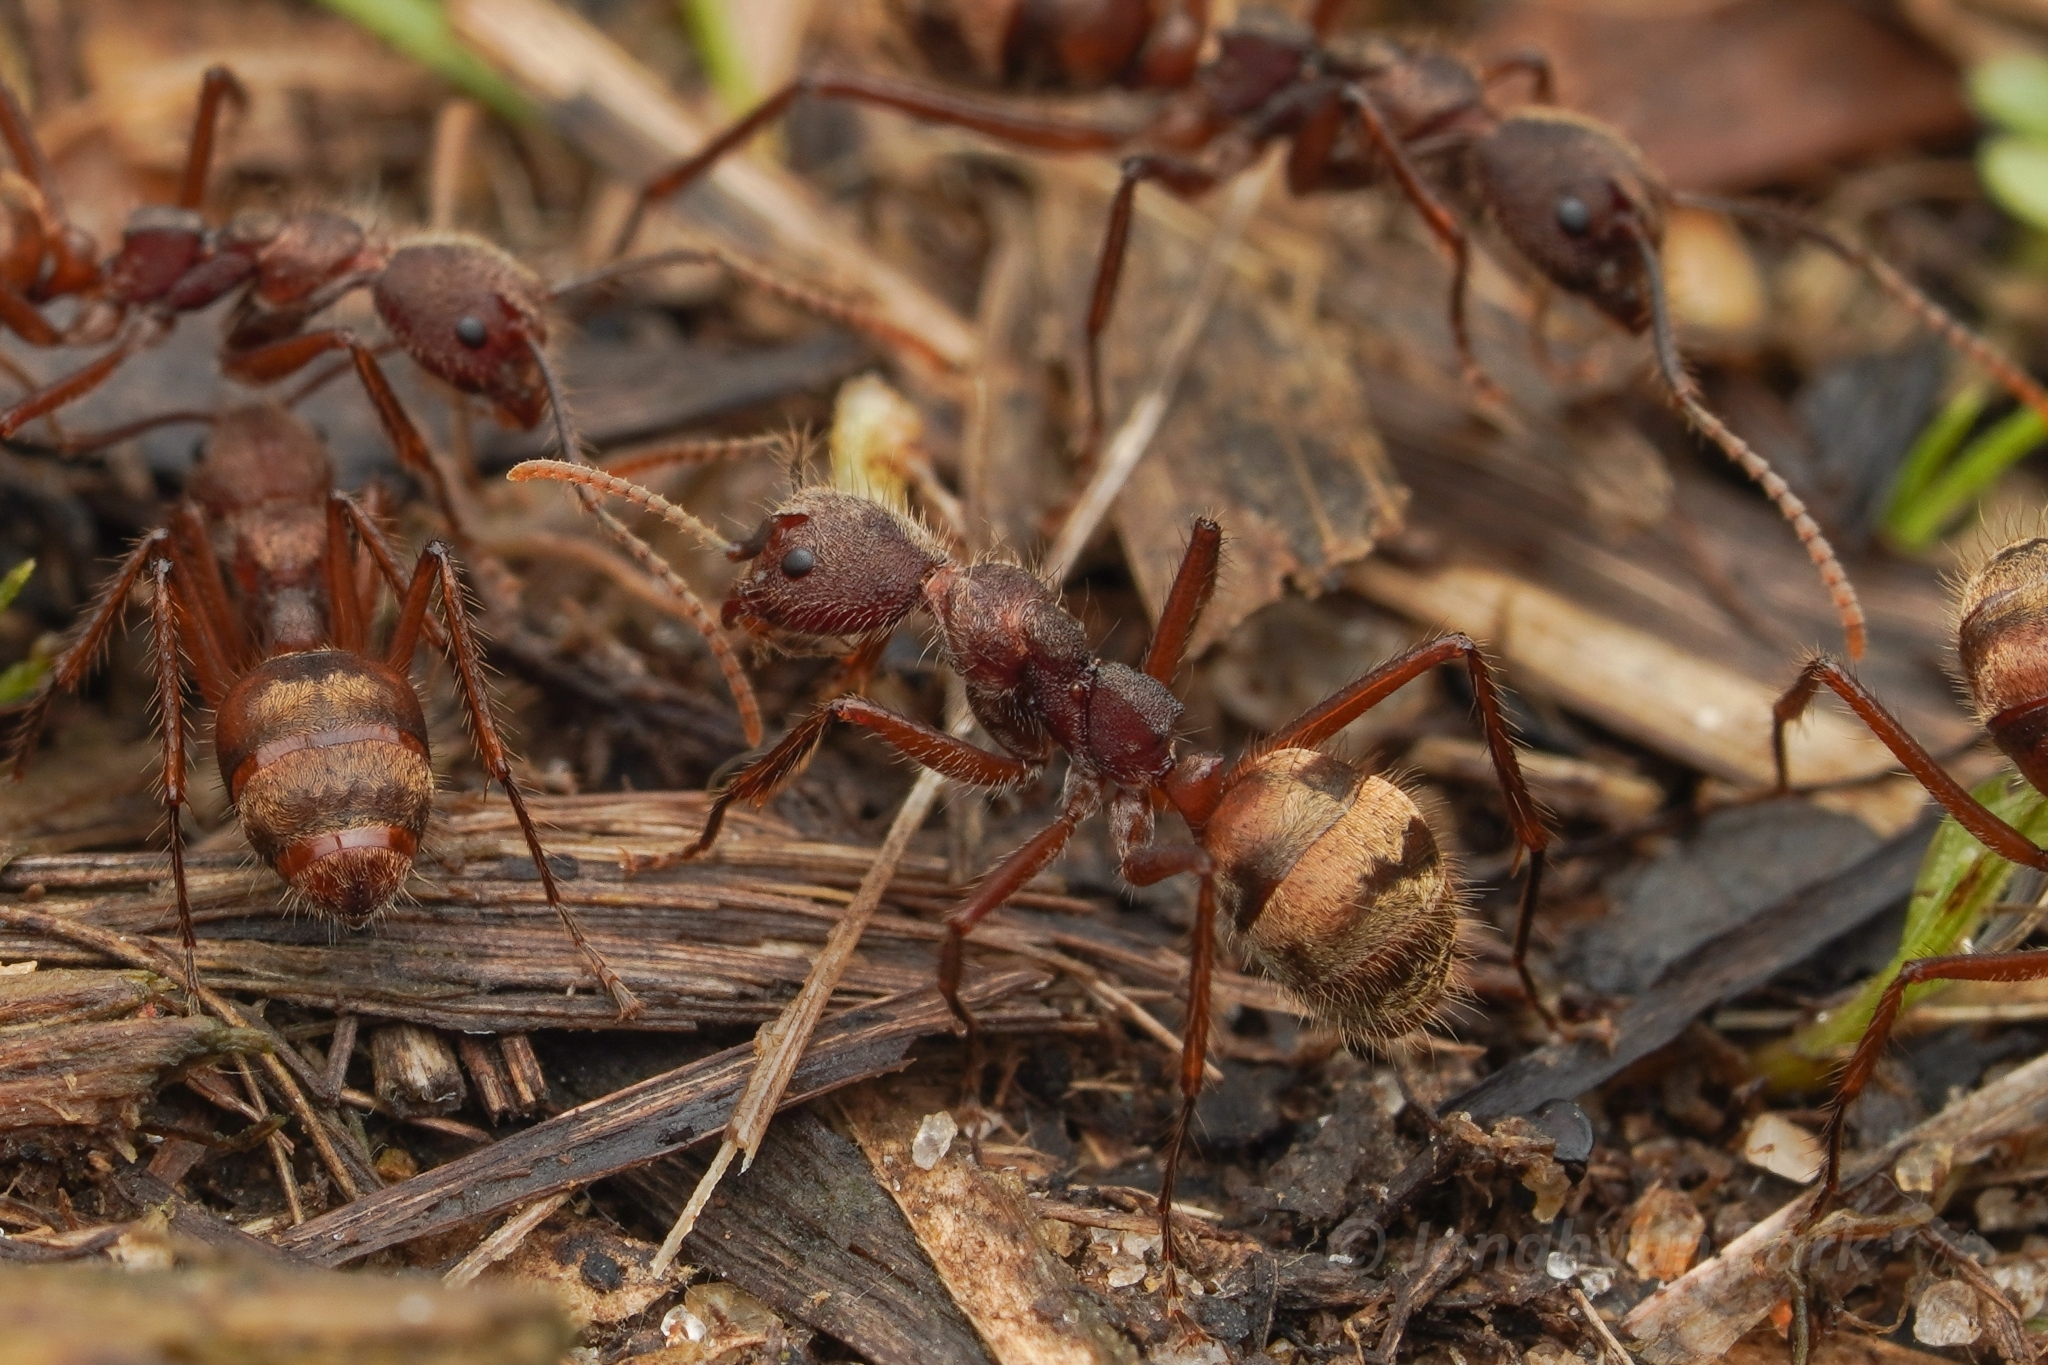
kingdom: Animalia
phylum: Arthropoda
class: Insecta
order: Hymenoptera
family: Formicidae
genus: Dolichoderus
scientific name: Dolichoderus bidens
